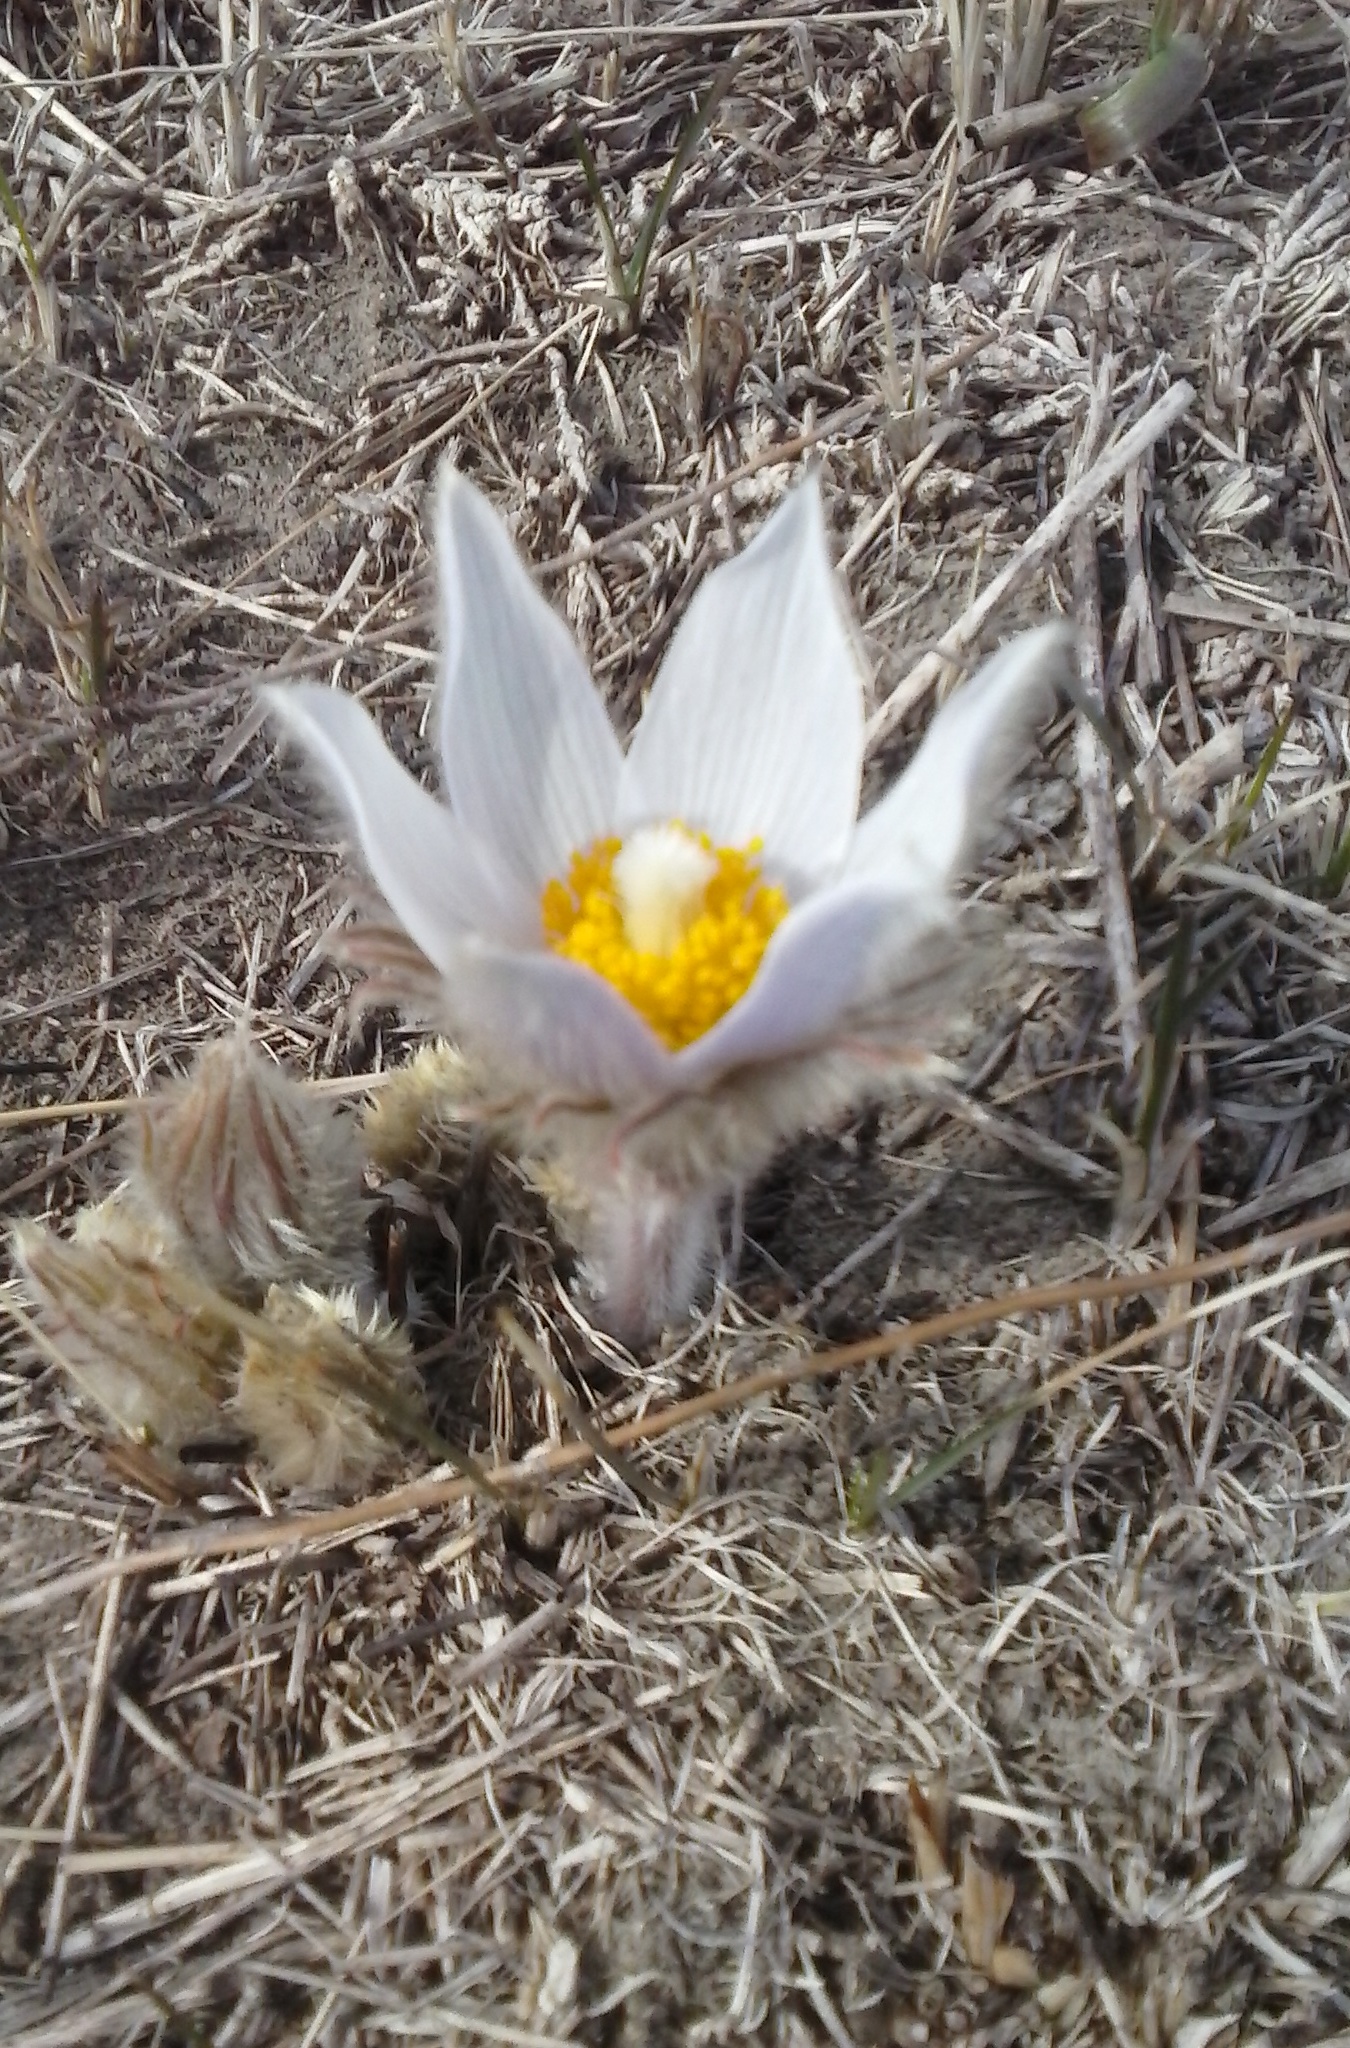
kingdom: Plantae
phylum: Tracheophyta
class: Magnoliopsida
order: Ranunculales
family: Ranunculaceae
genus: Pulsatilla
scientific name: Pulsatilla nuttalliana
